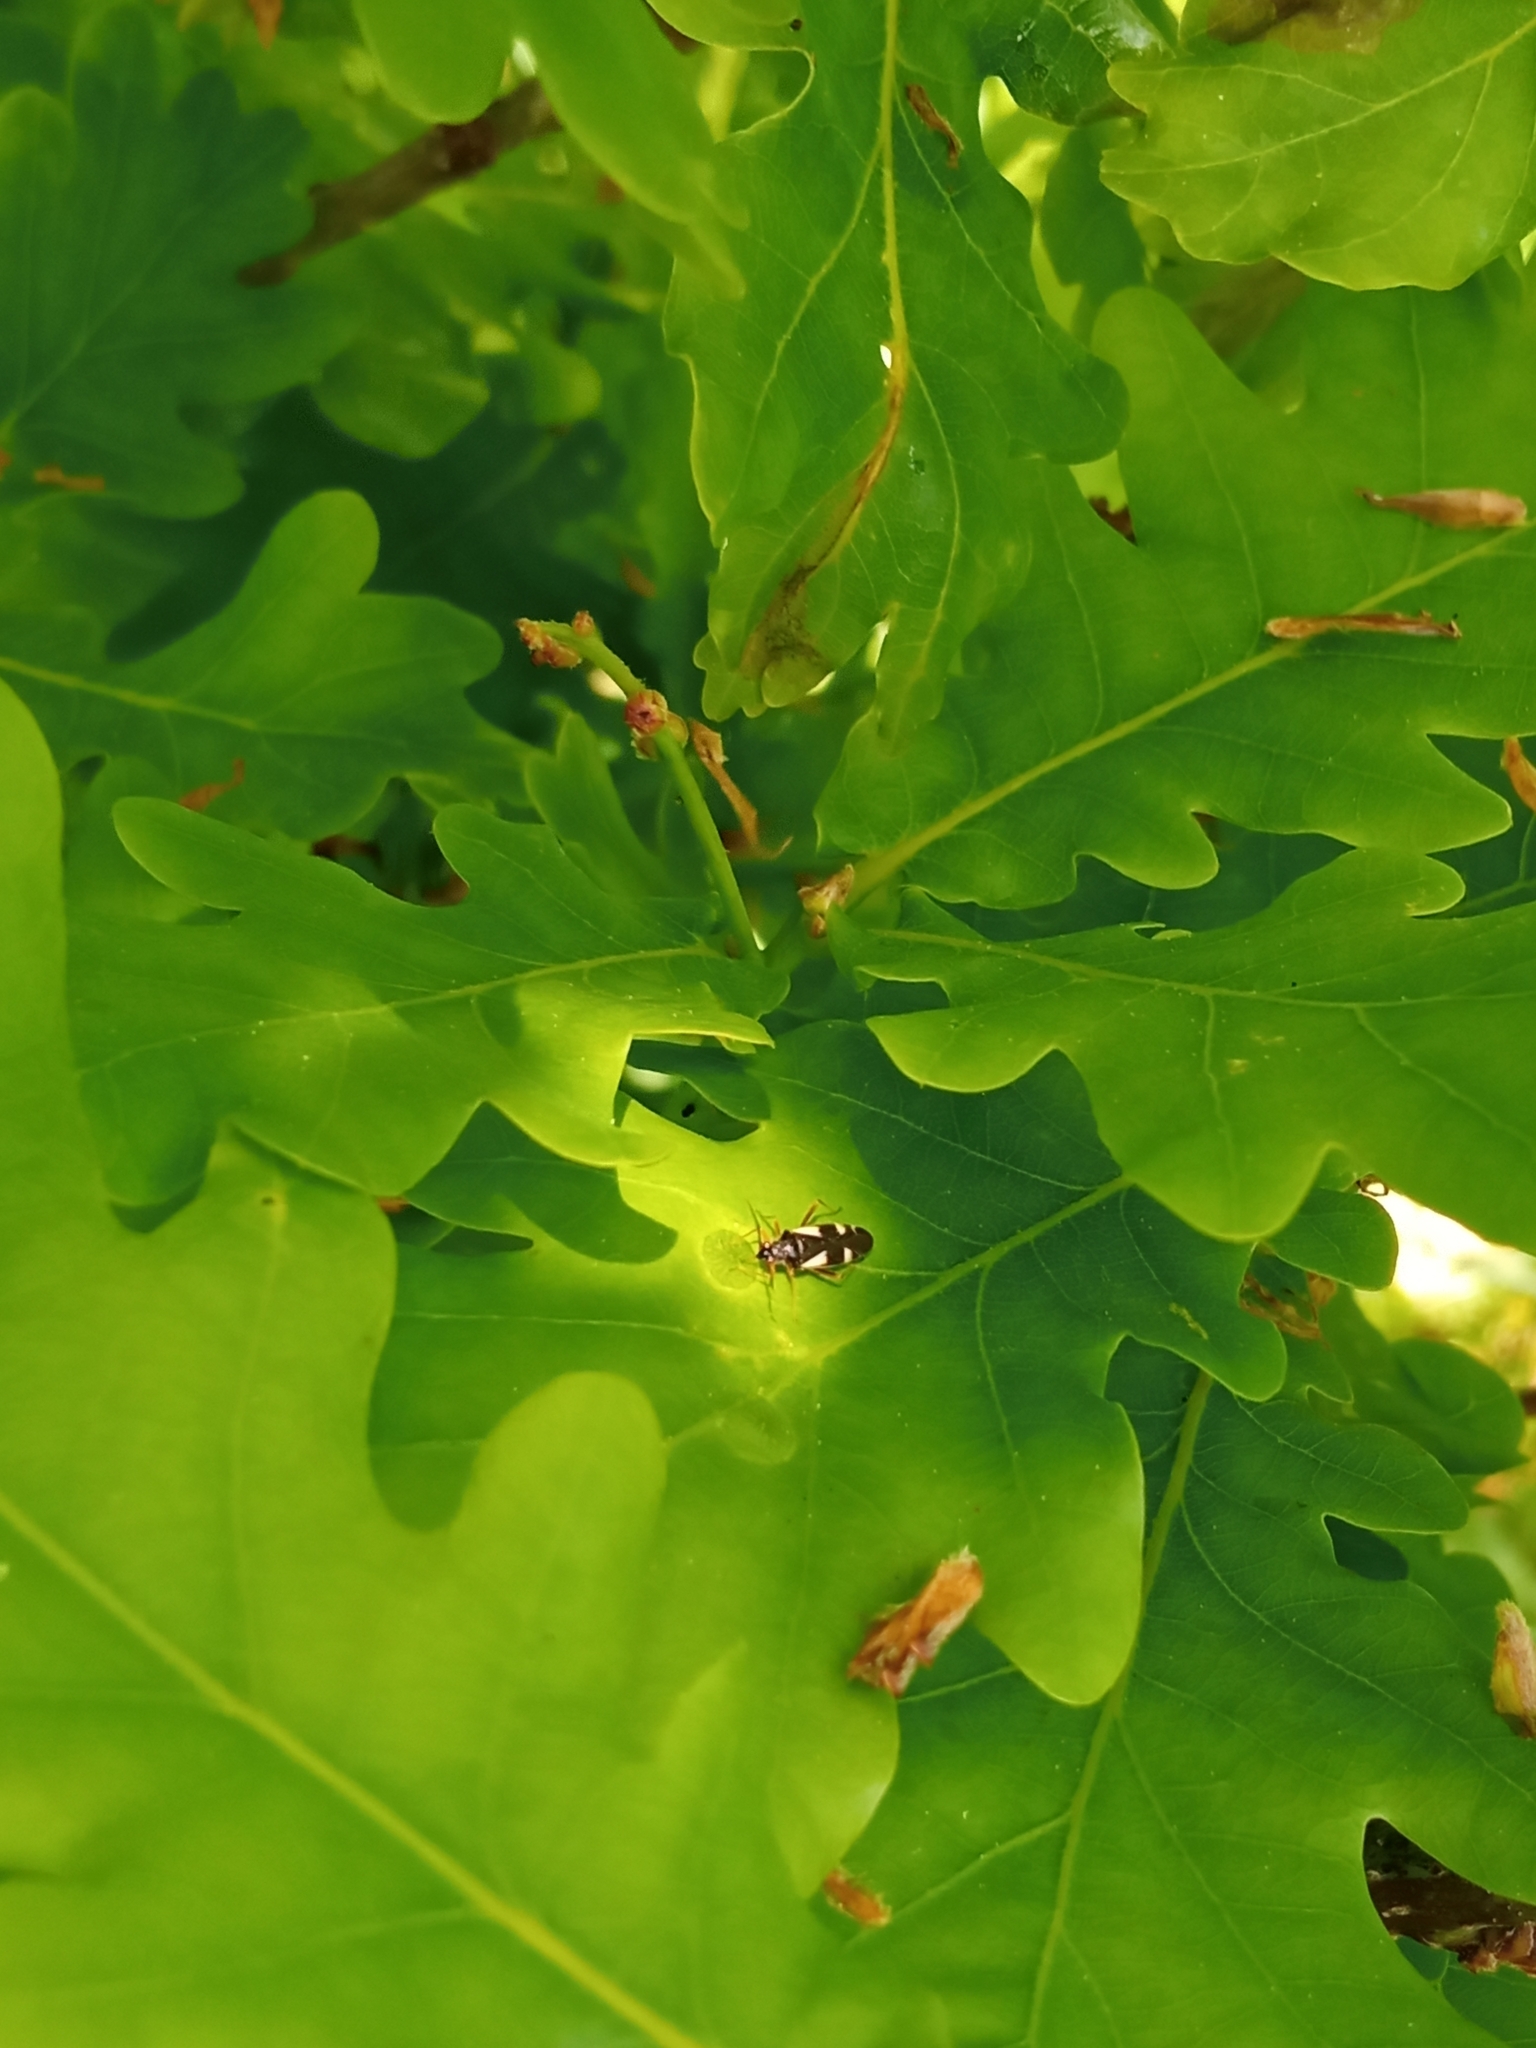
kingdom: Animalia
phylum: Arthropoda
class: Insecta
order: Hemiptera
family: Miridae
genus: Dryophilocoris
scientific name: Dryophilocoris flavoquadrimaculatus
